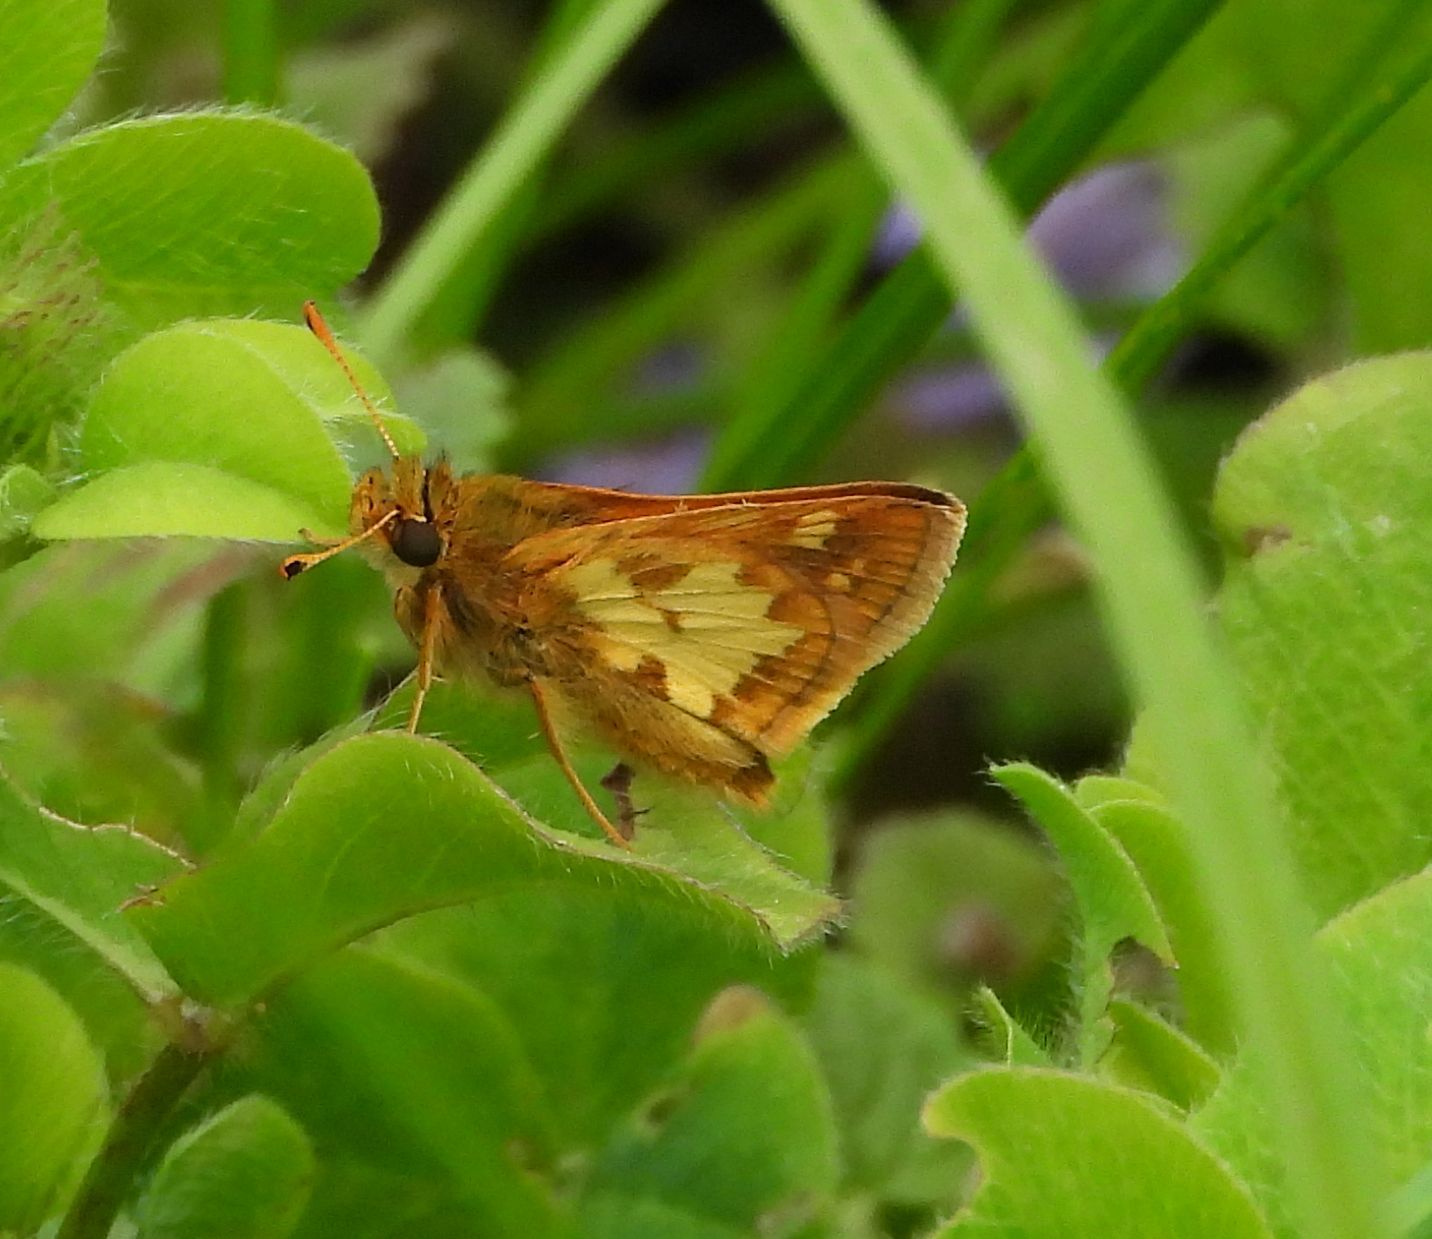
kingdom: Animalia
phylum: Arthropoda
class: Insecta
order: Lepidoptera
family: Hesperiidae
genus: Polites
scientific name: Polites coras
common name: Peck's skipper
